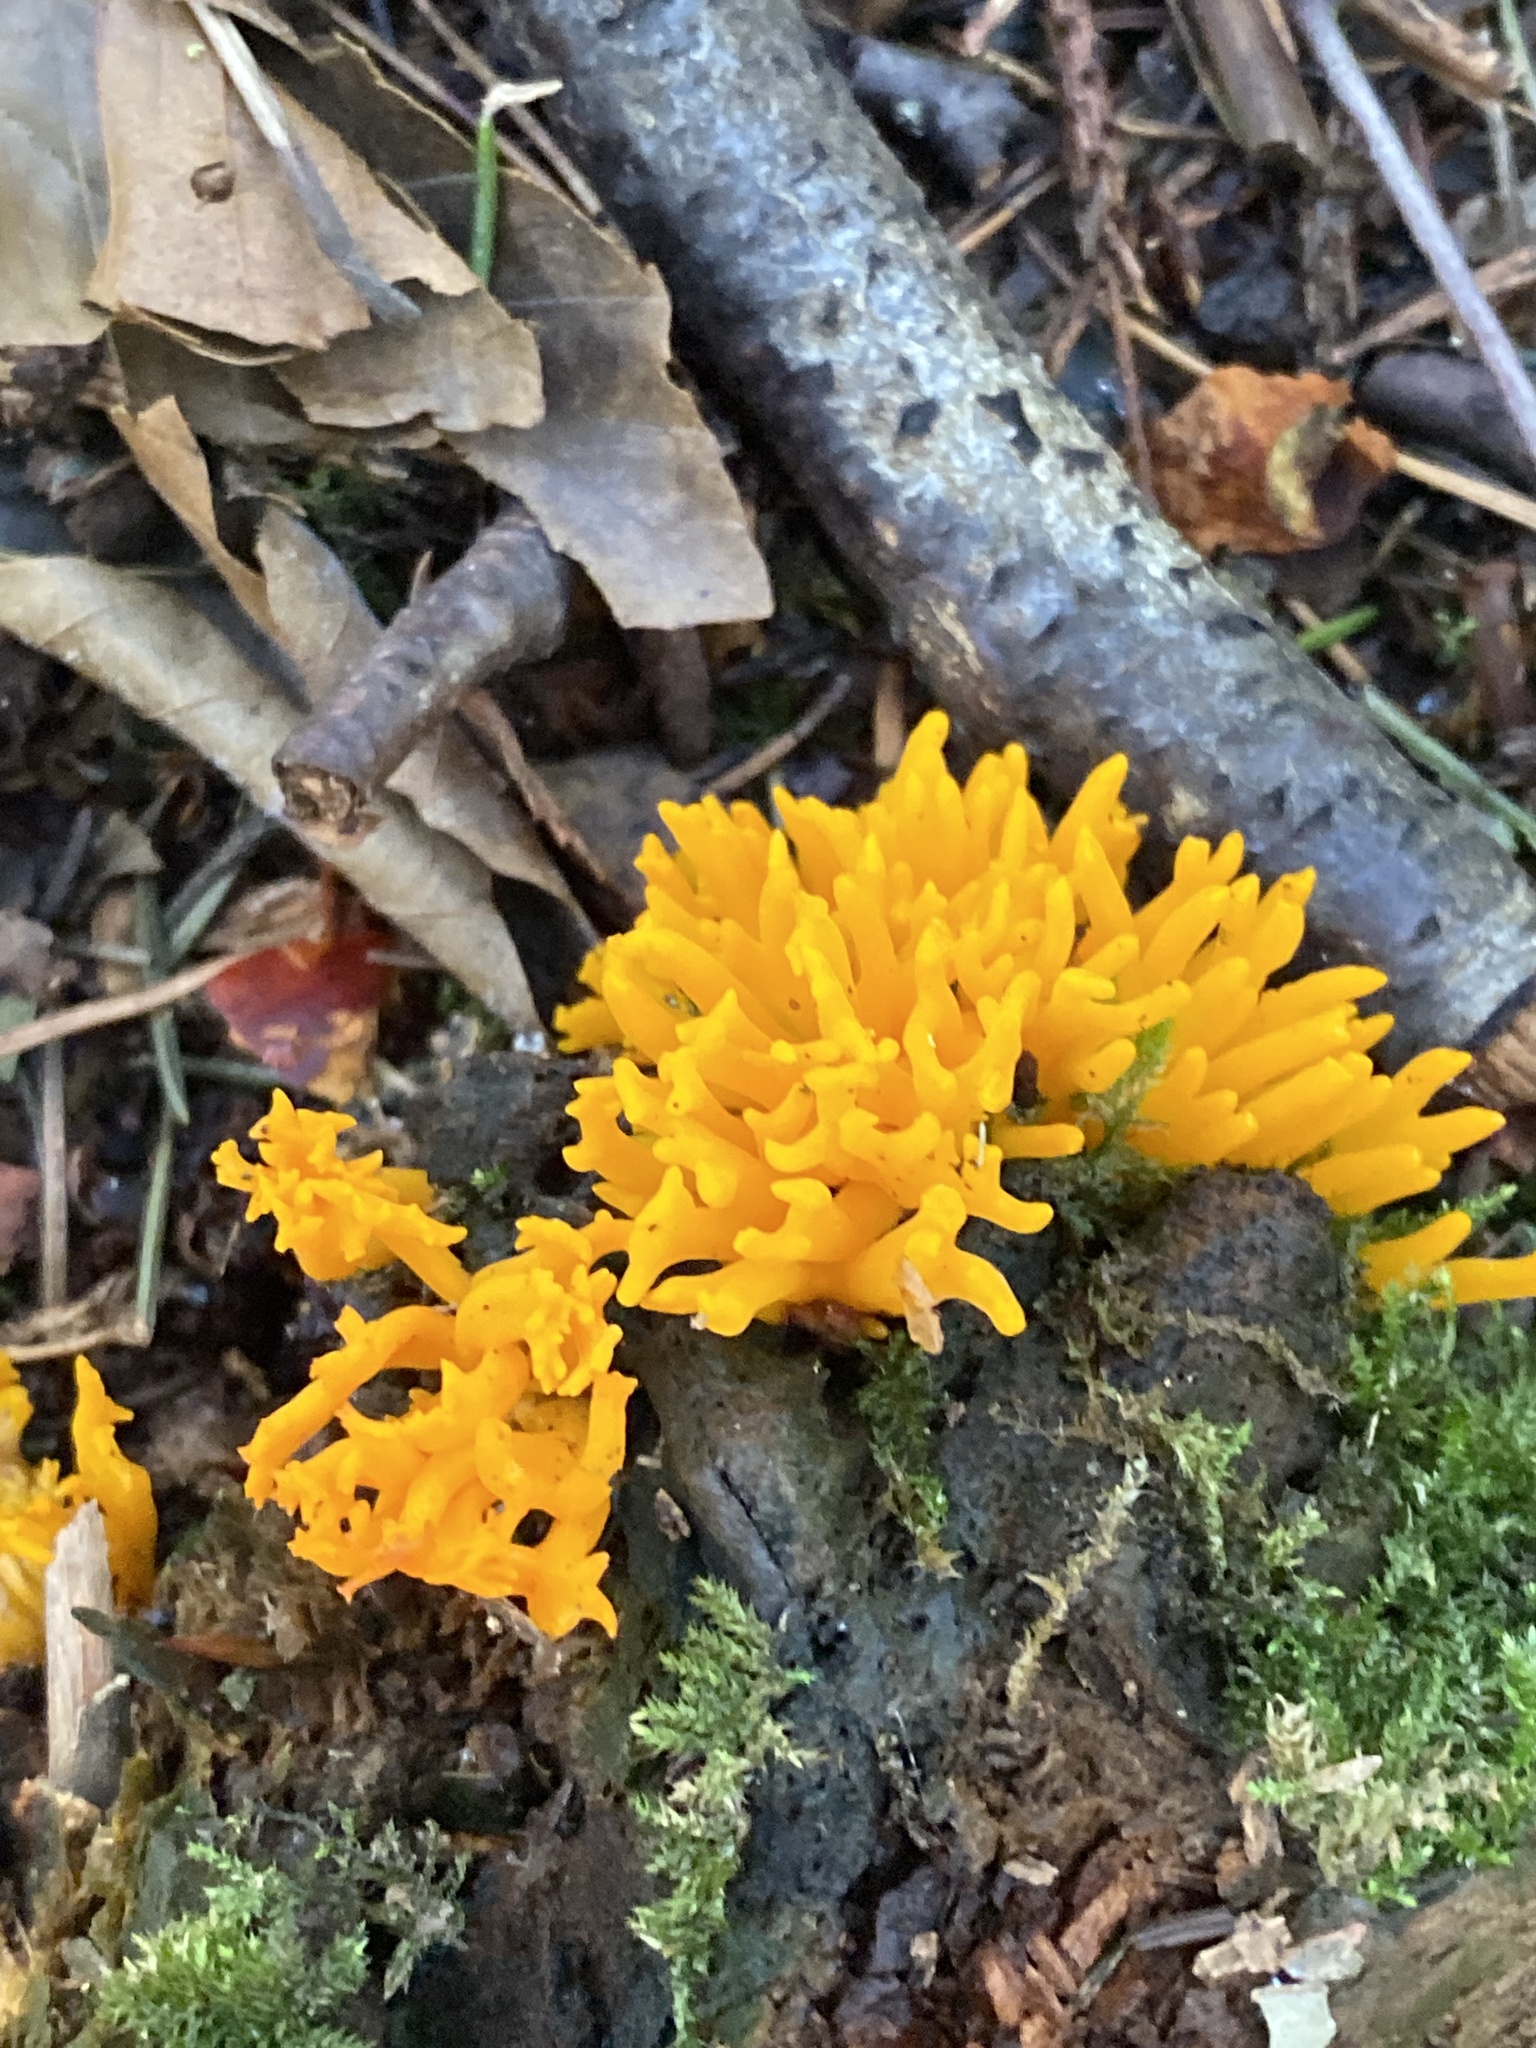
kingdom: Fungi
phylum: Basidiomycota
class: Dacrymycetes
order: Dacrymycetales
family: Dacrymycetaceae
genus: Calocera
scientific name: Calocera viscosa
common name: Yellow stagshorn
